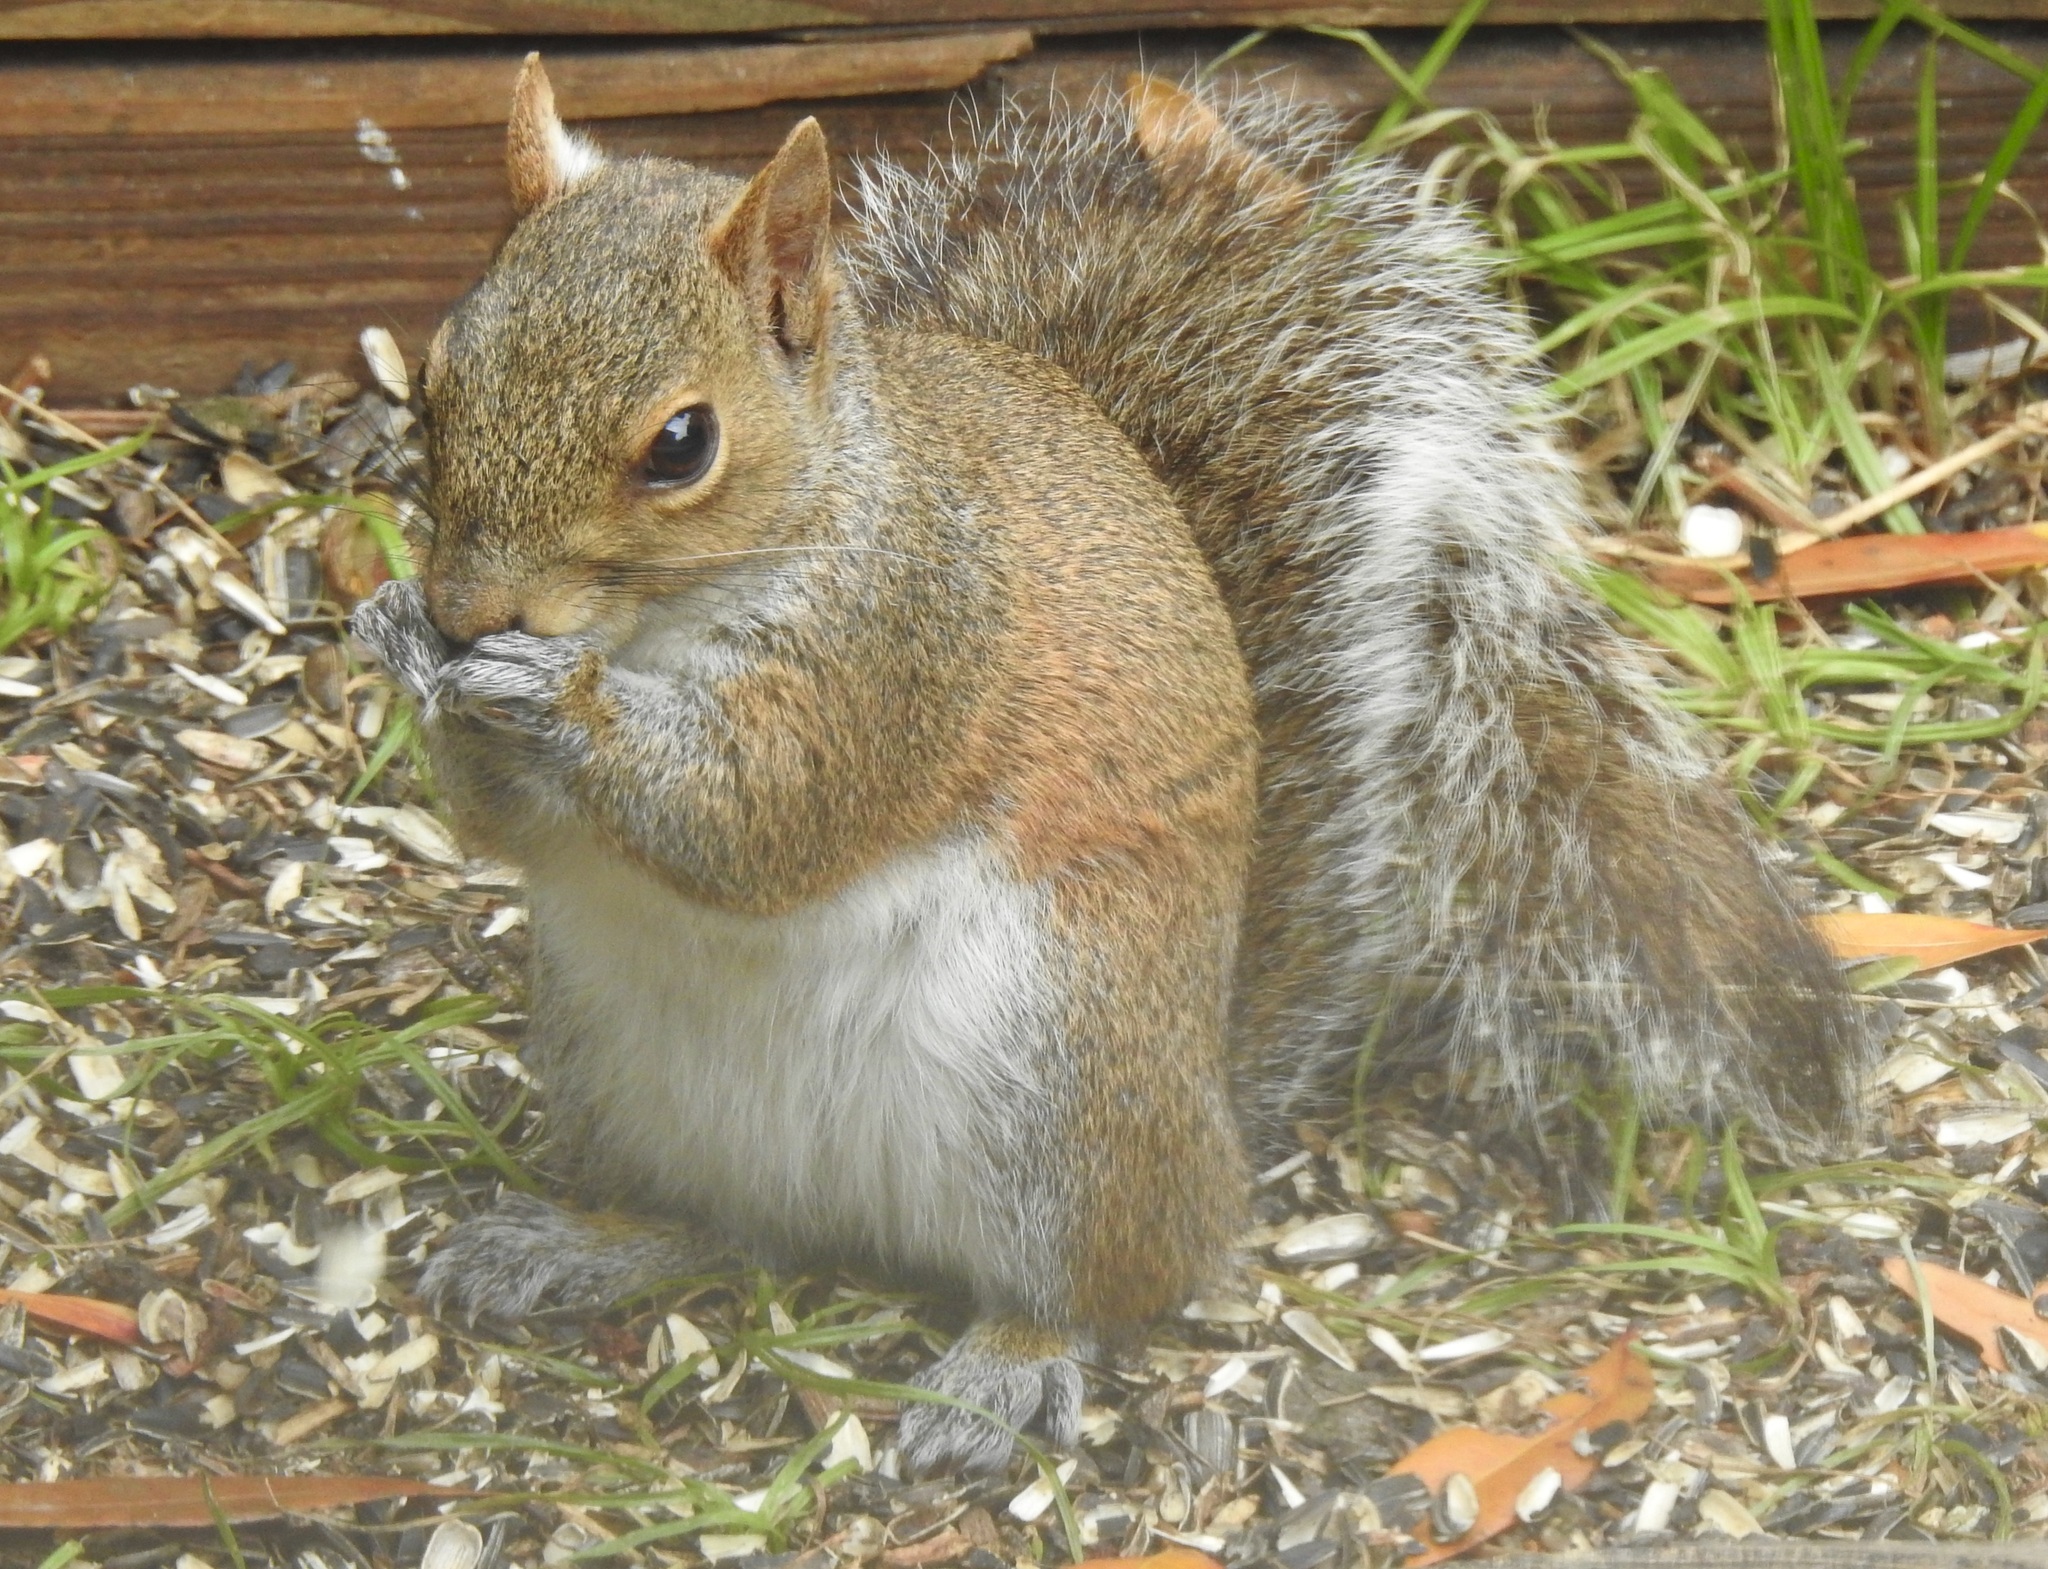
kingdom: Animalia
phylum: Chordata
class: Mammalia
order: Rodentia
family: Sciuridae
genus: Sciurus
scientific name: Sciurus carolinensis
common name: Eastern gray squirrel
